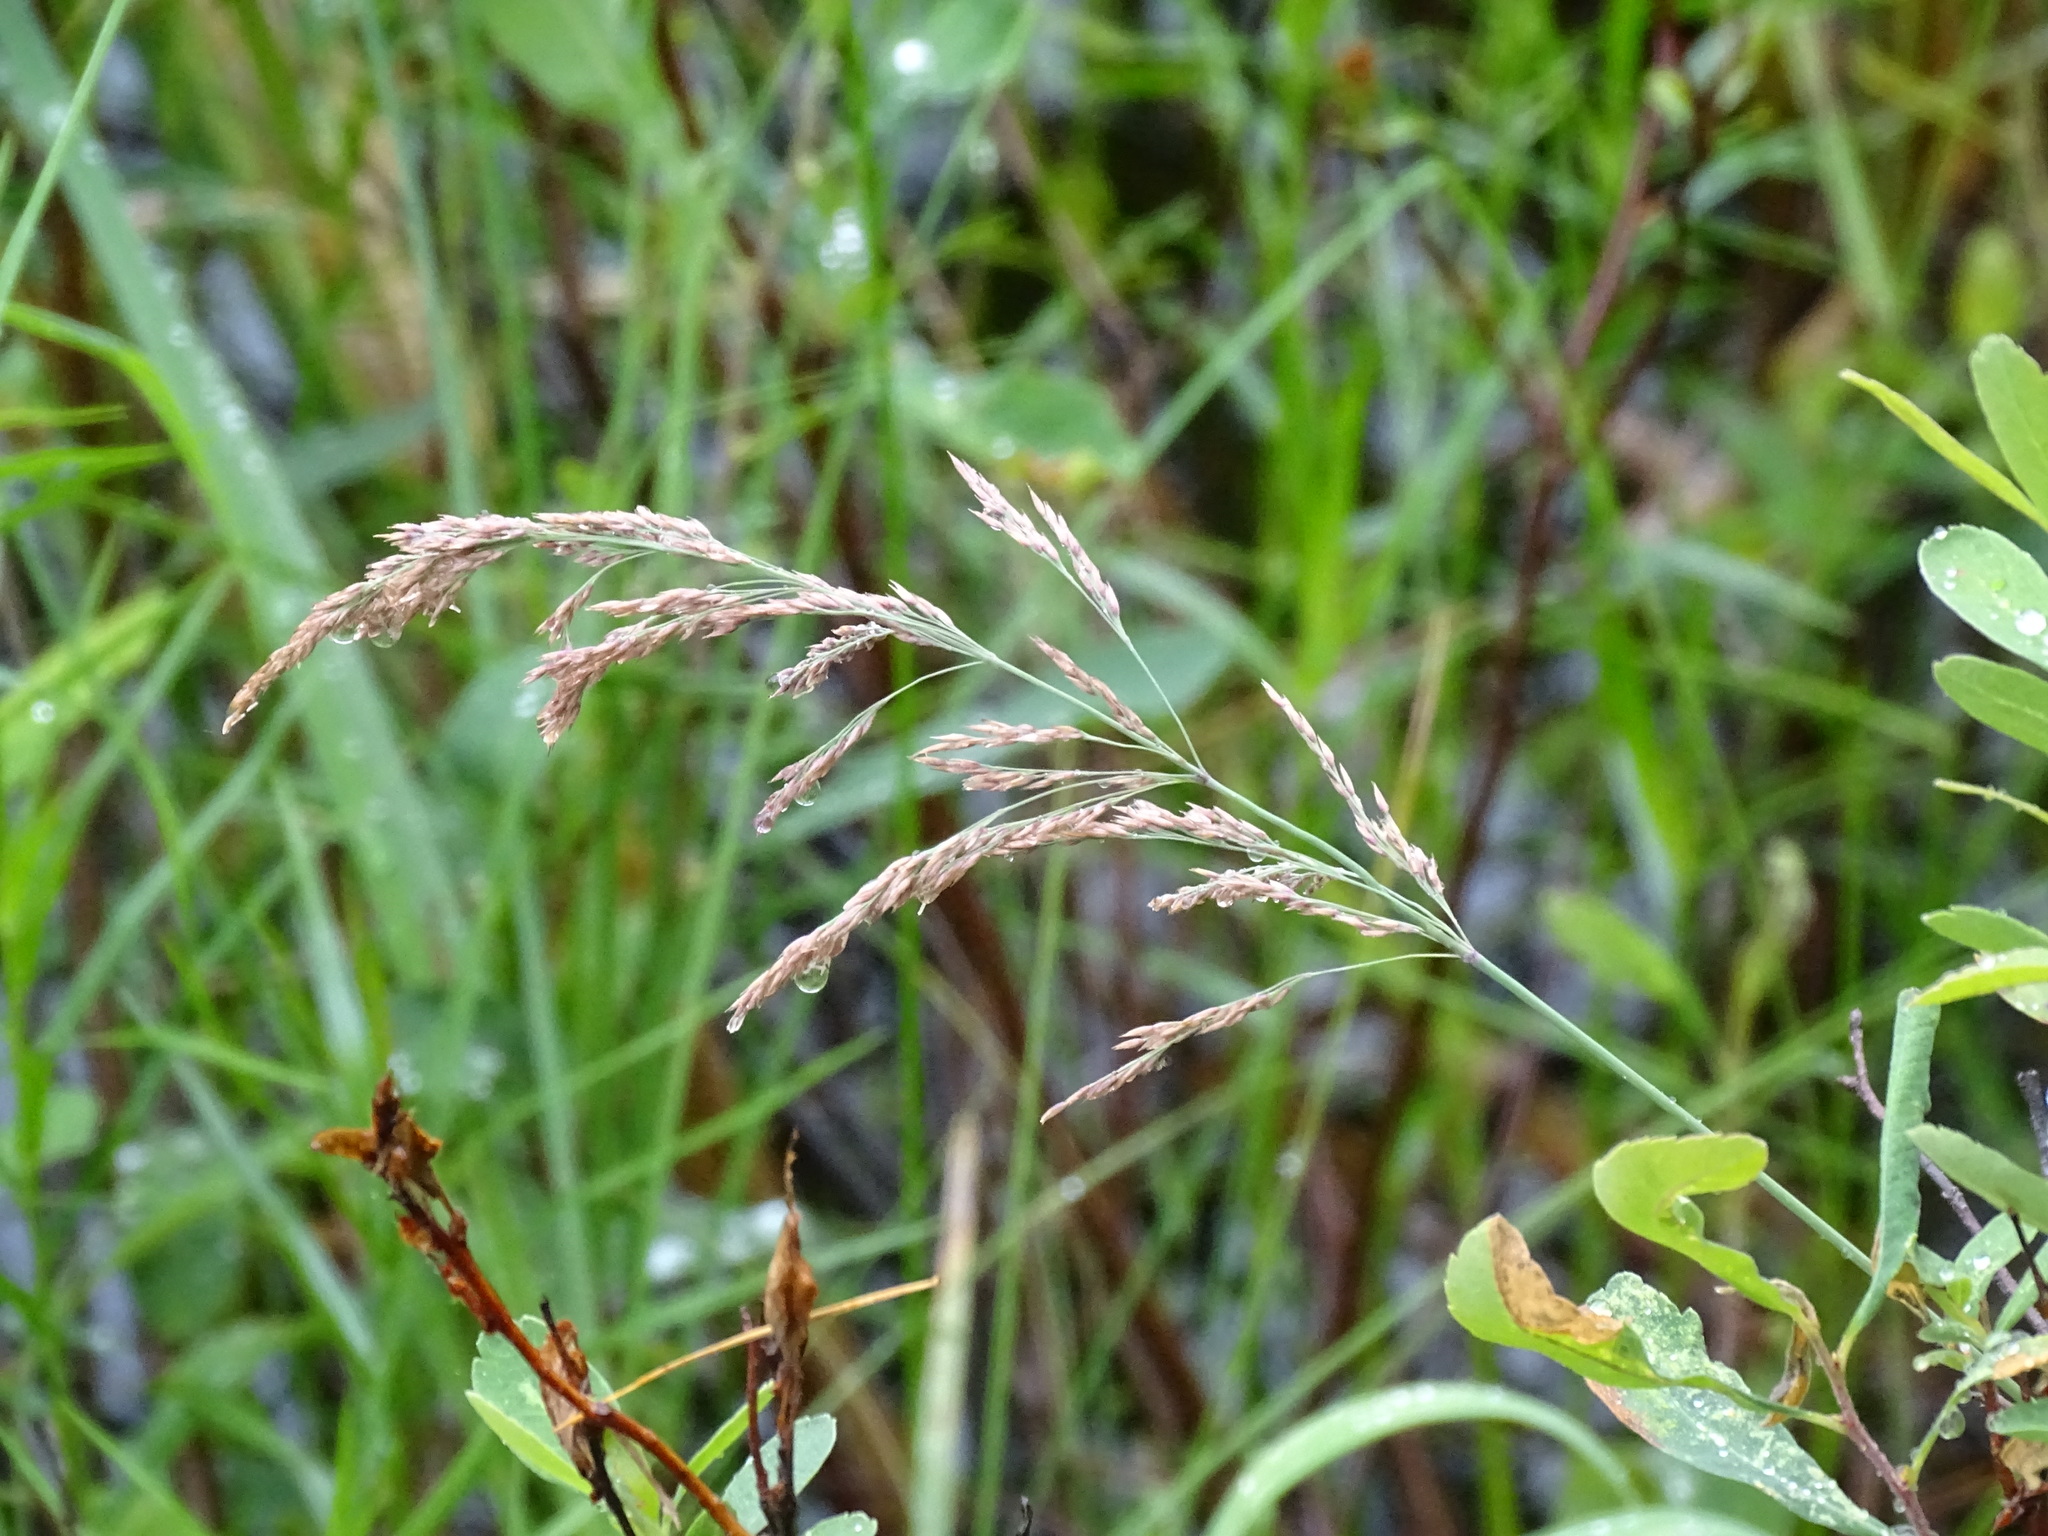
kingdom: Plantae
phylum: Tracheophyta
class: Liliopsida
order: Poales
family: Poaceae
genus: Calamagrostis
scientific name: Calamagrostis canadensis
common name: Canada bluejoint
